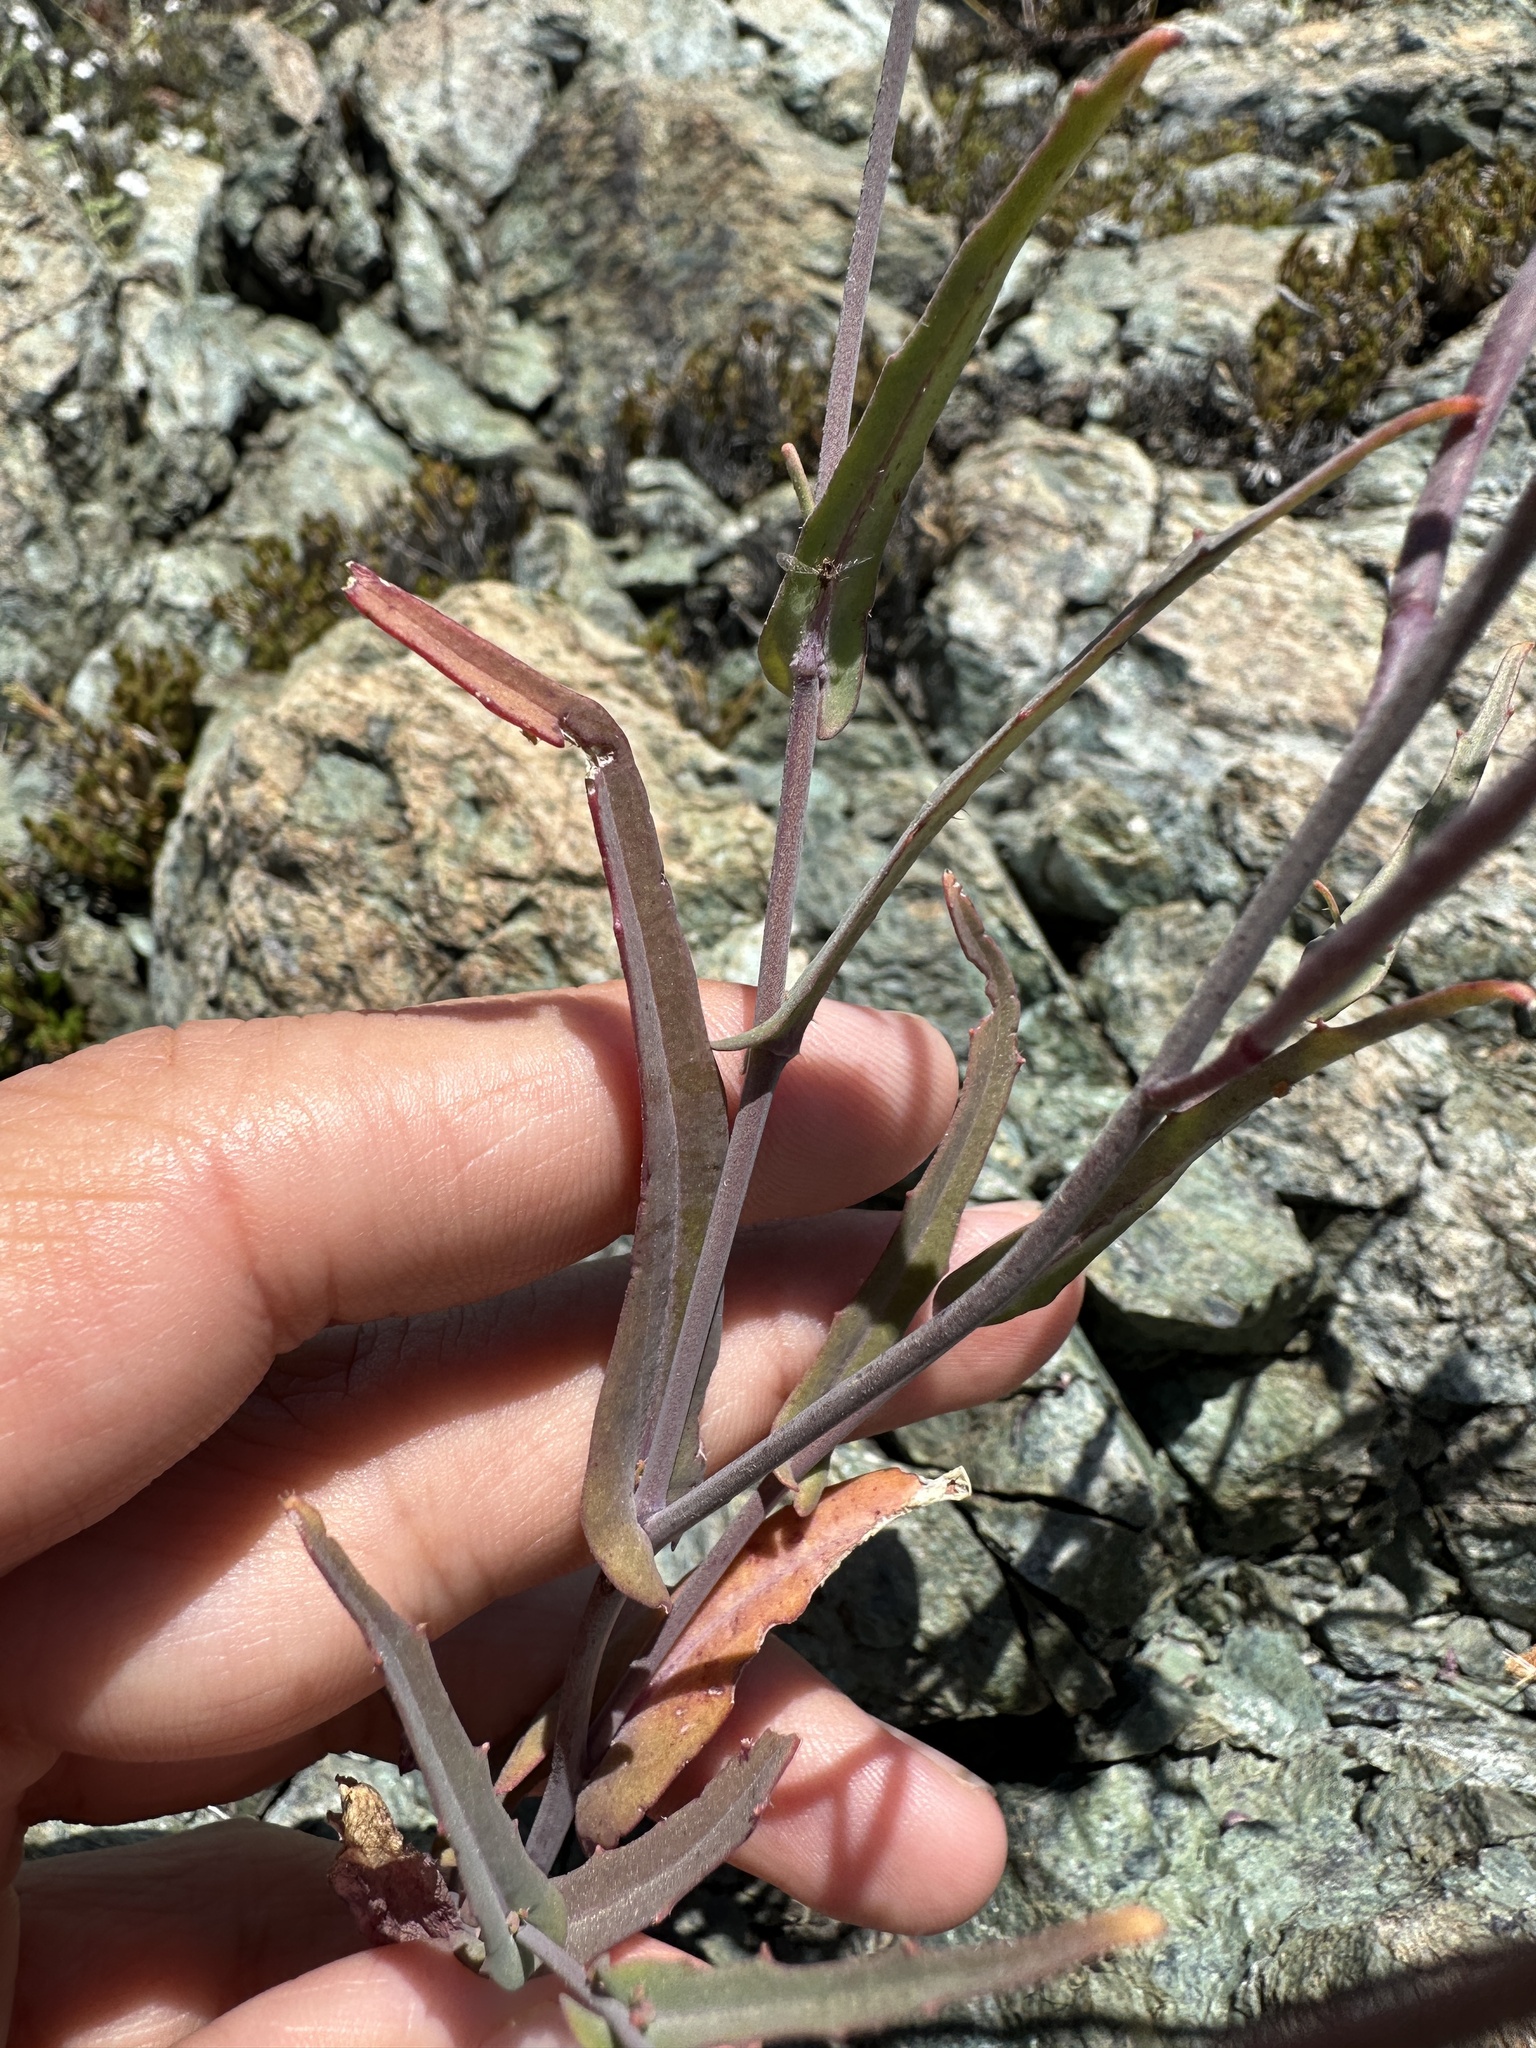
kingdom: Plantae
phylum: Tracheophyta
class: Magnoliopsida
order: Brassicales
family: Brassicaceae
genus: Streptanthus
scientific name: Streptanthus glandulosus
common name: Jewel-flower
